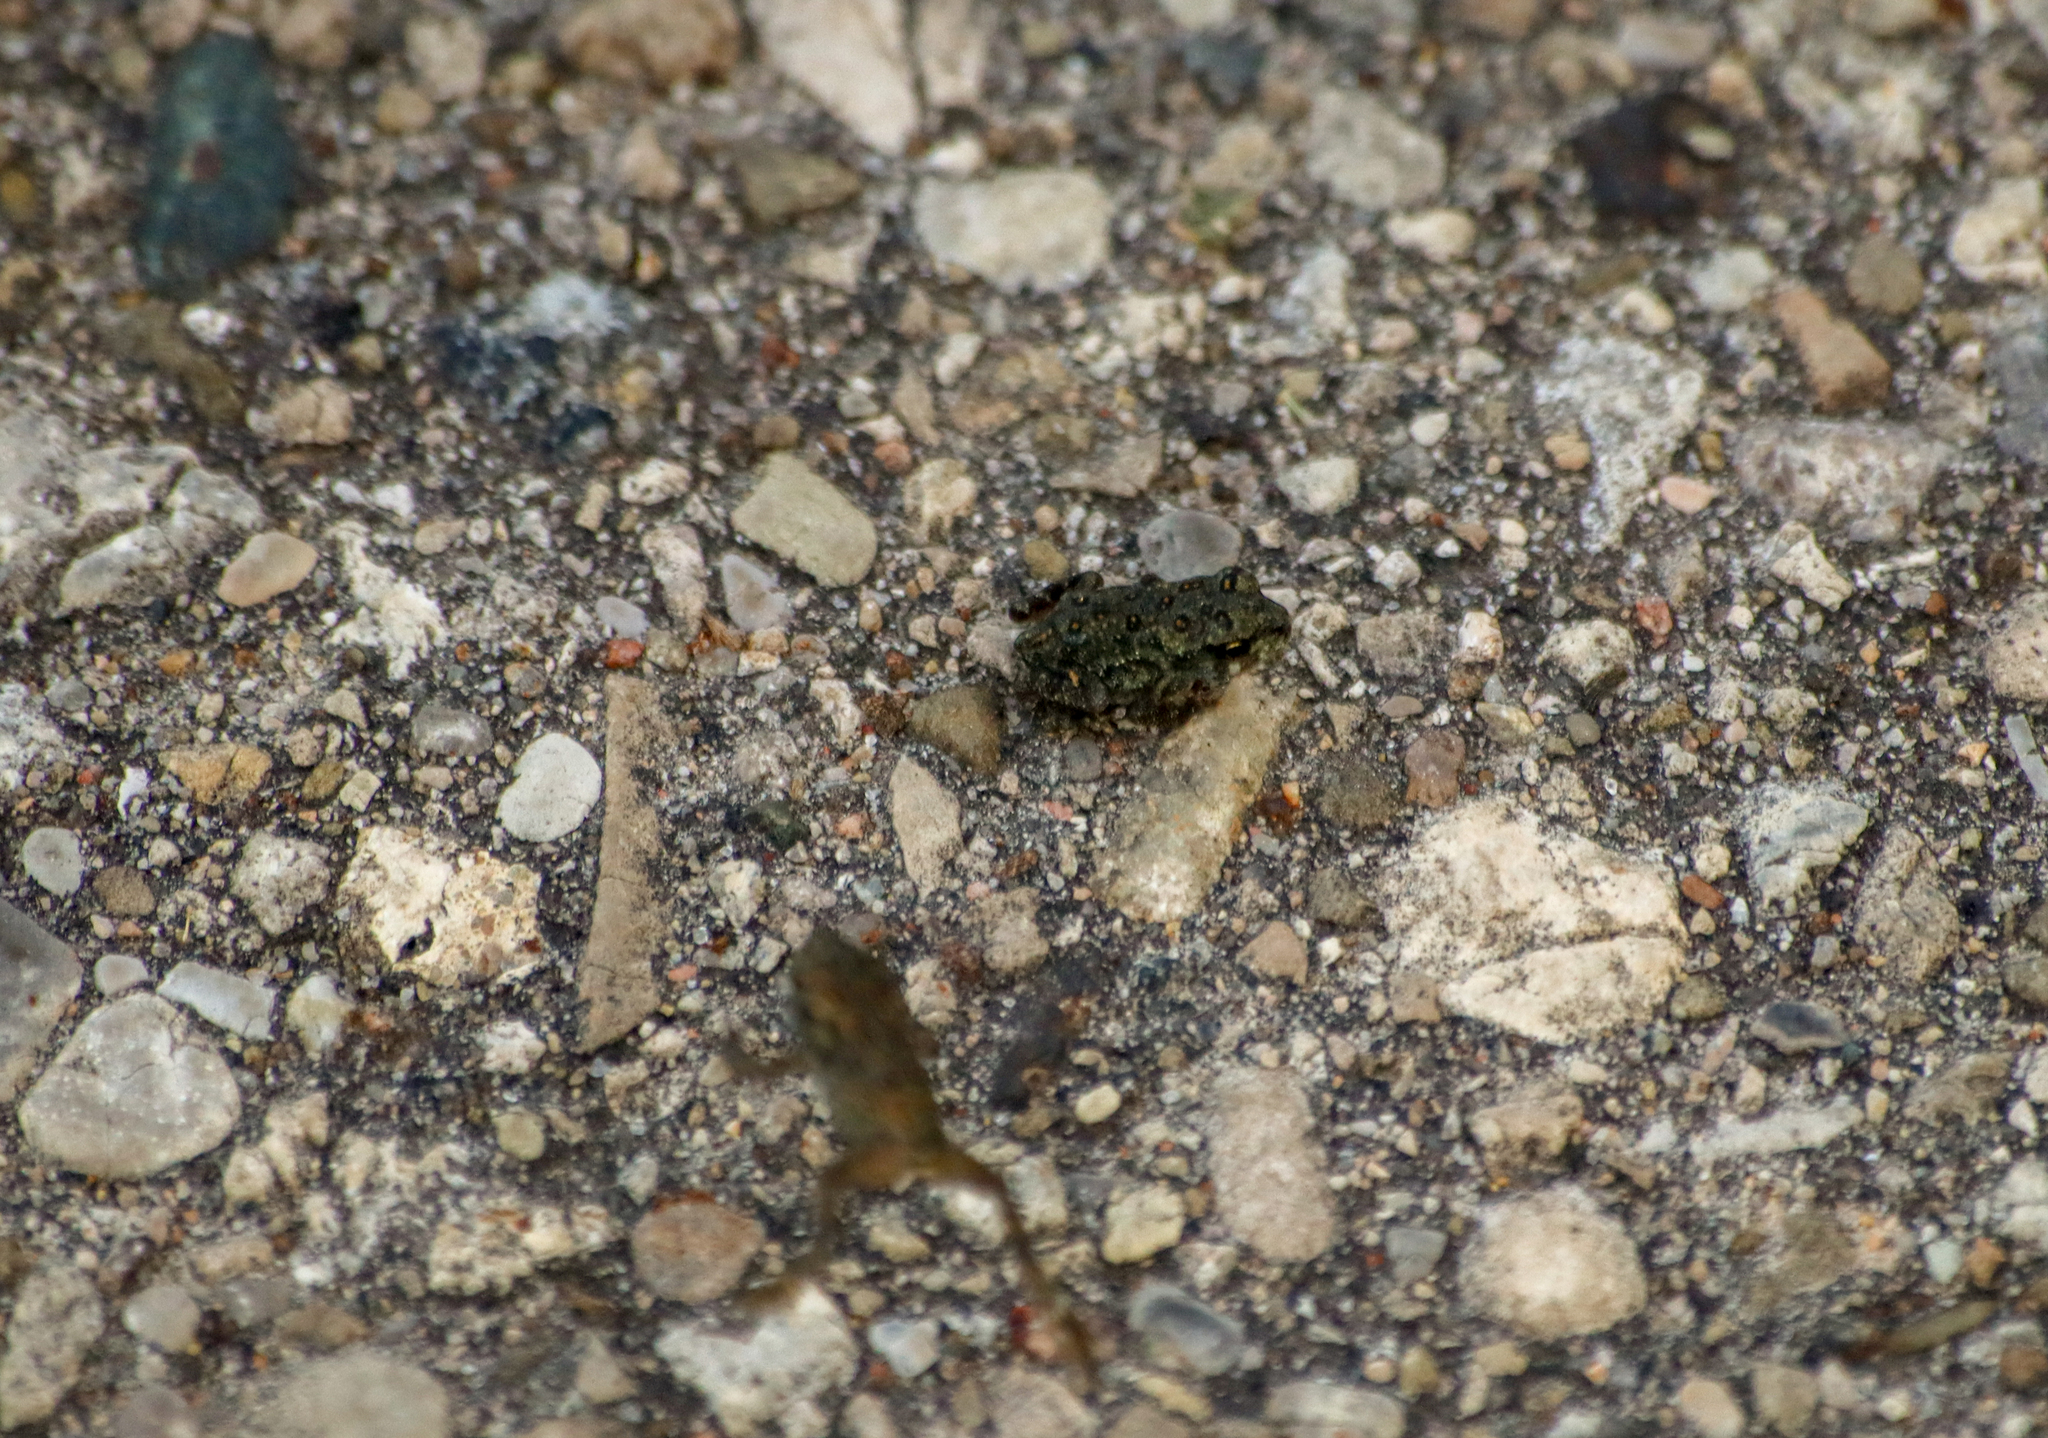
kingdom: Animalia
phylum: Chordata
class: Amphibia
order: Anura
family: Bufonidae
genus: Anaxyrus
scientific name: Anaxyrus americanus
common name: American toad
